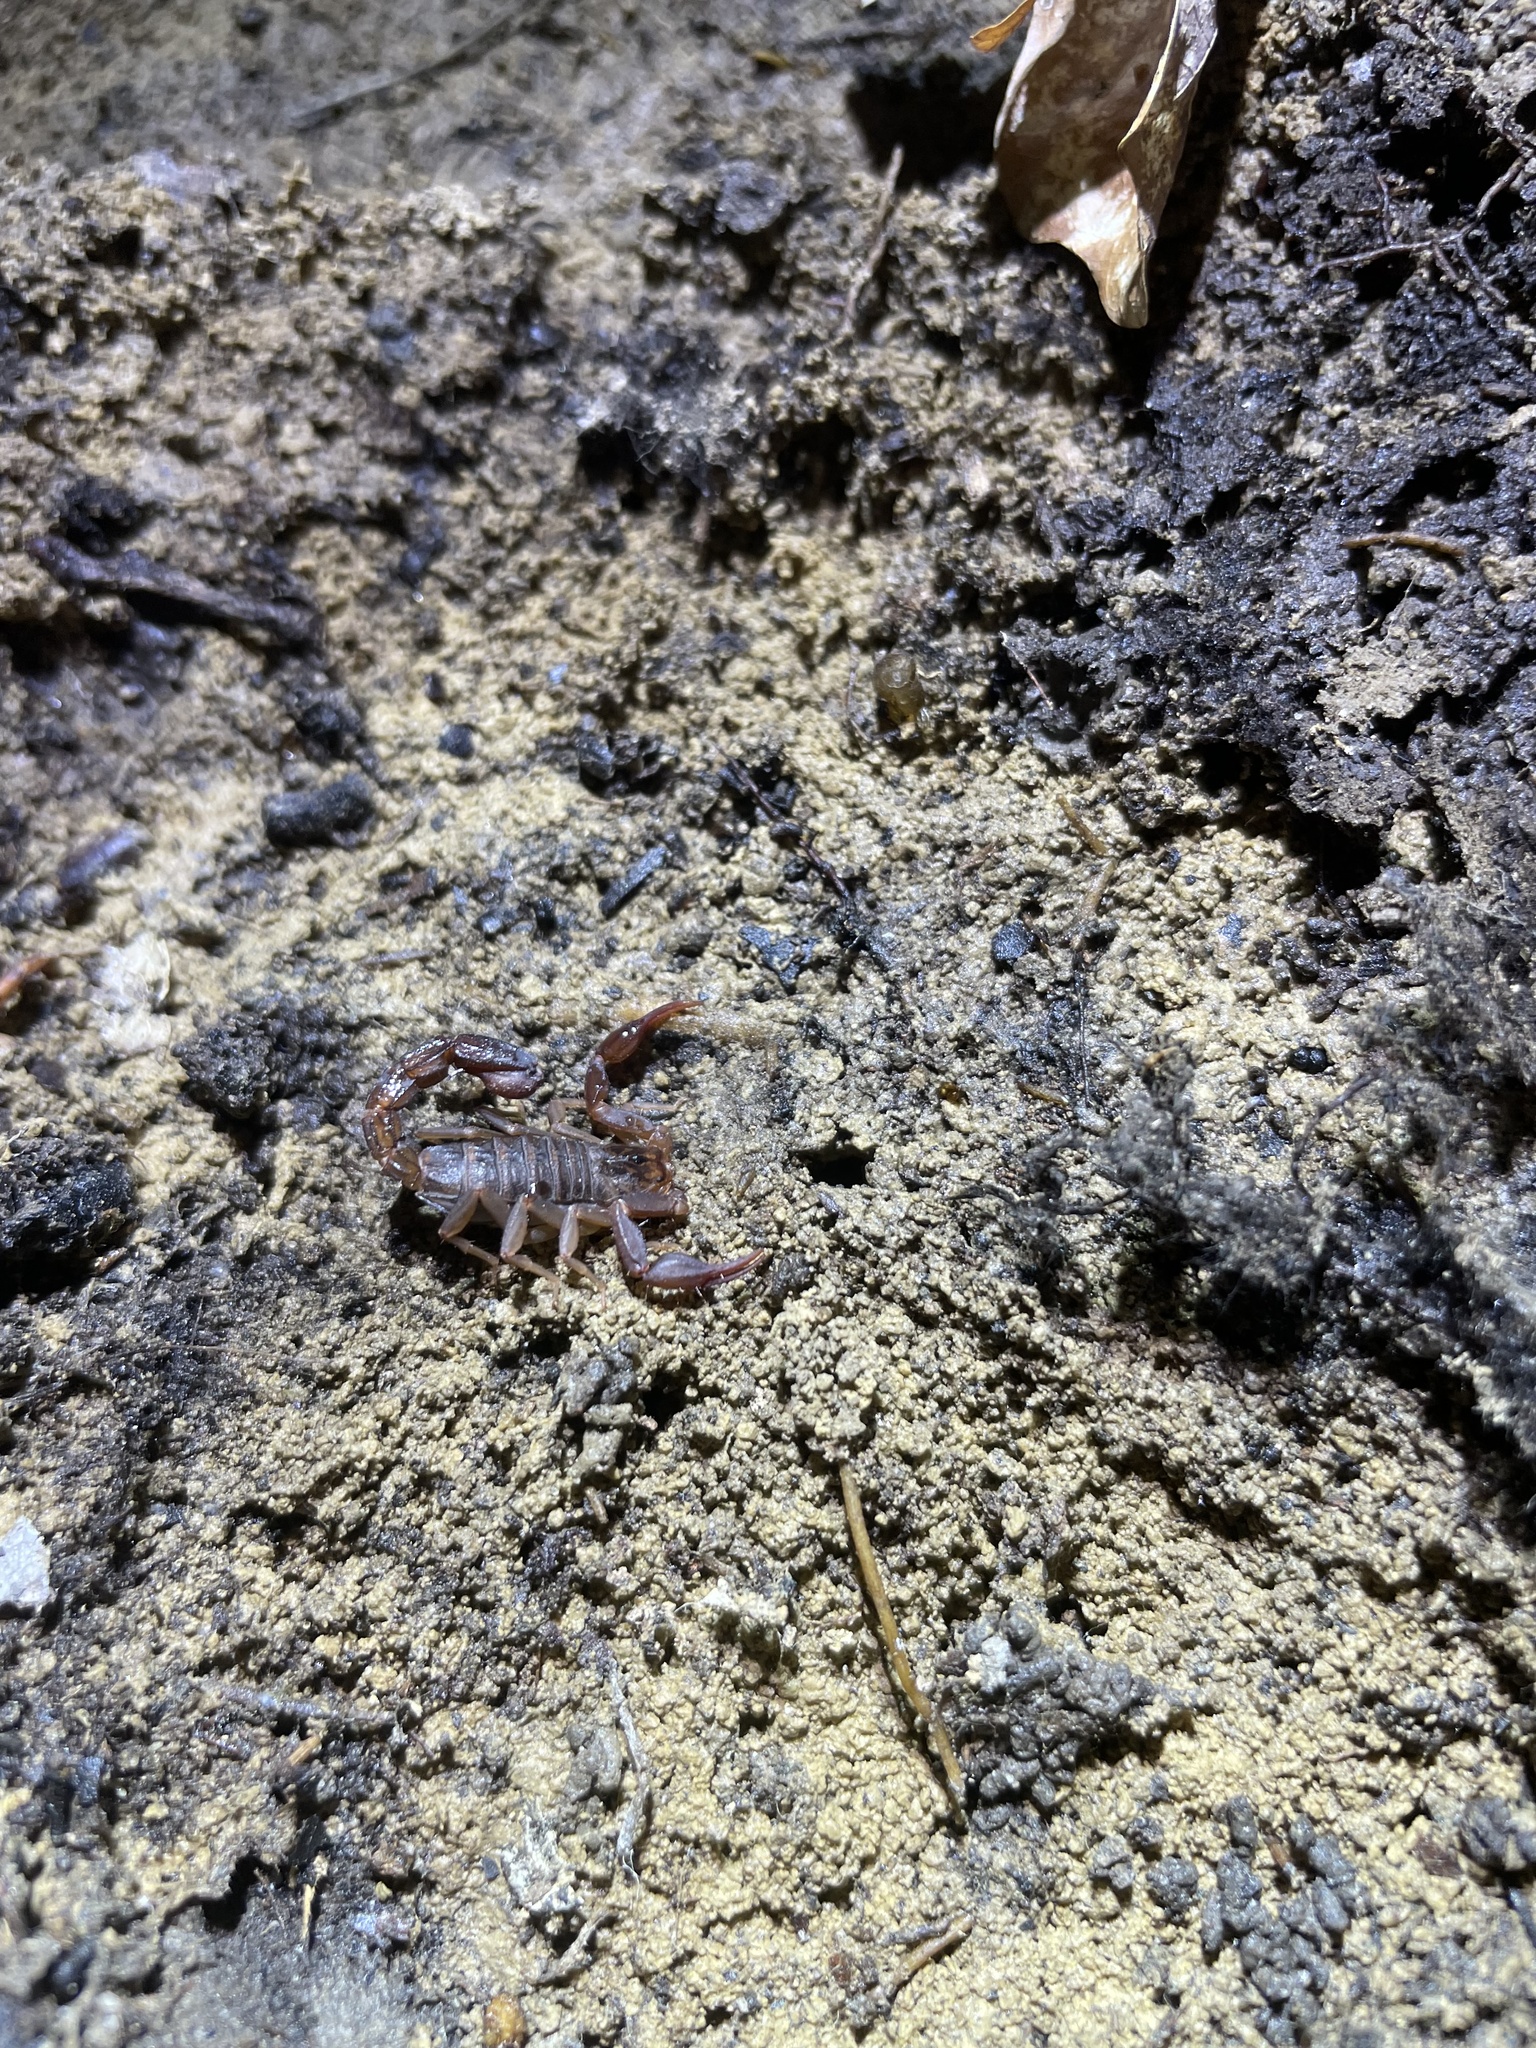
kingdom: Animalia
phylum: Arthropoda
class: Arachnida
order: Scorpiones
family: Vaejovidae
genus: Vaejovis
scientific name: Vaejovis carolinianus
